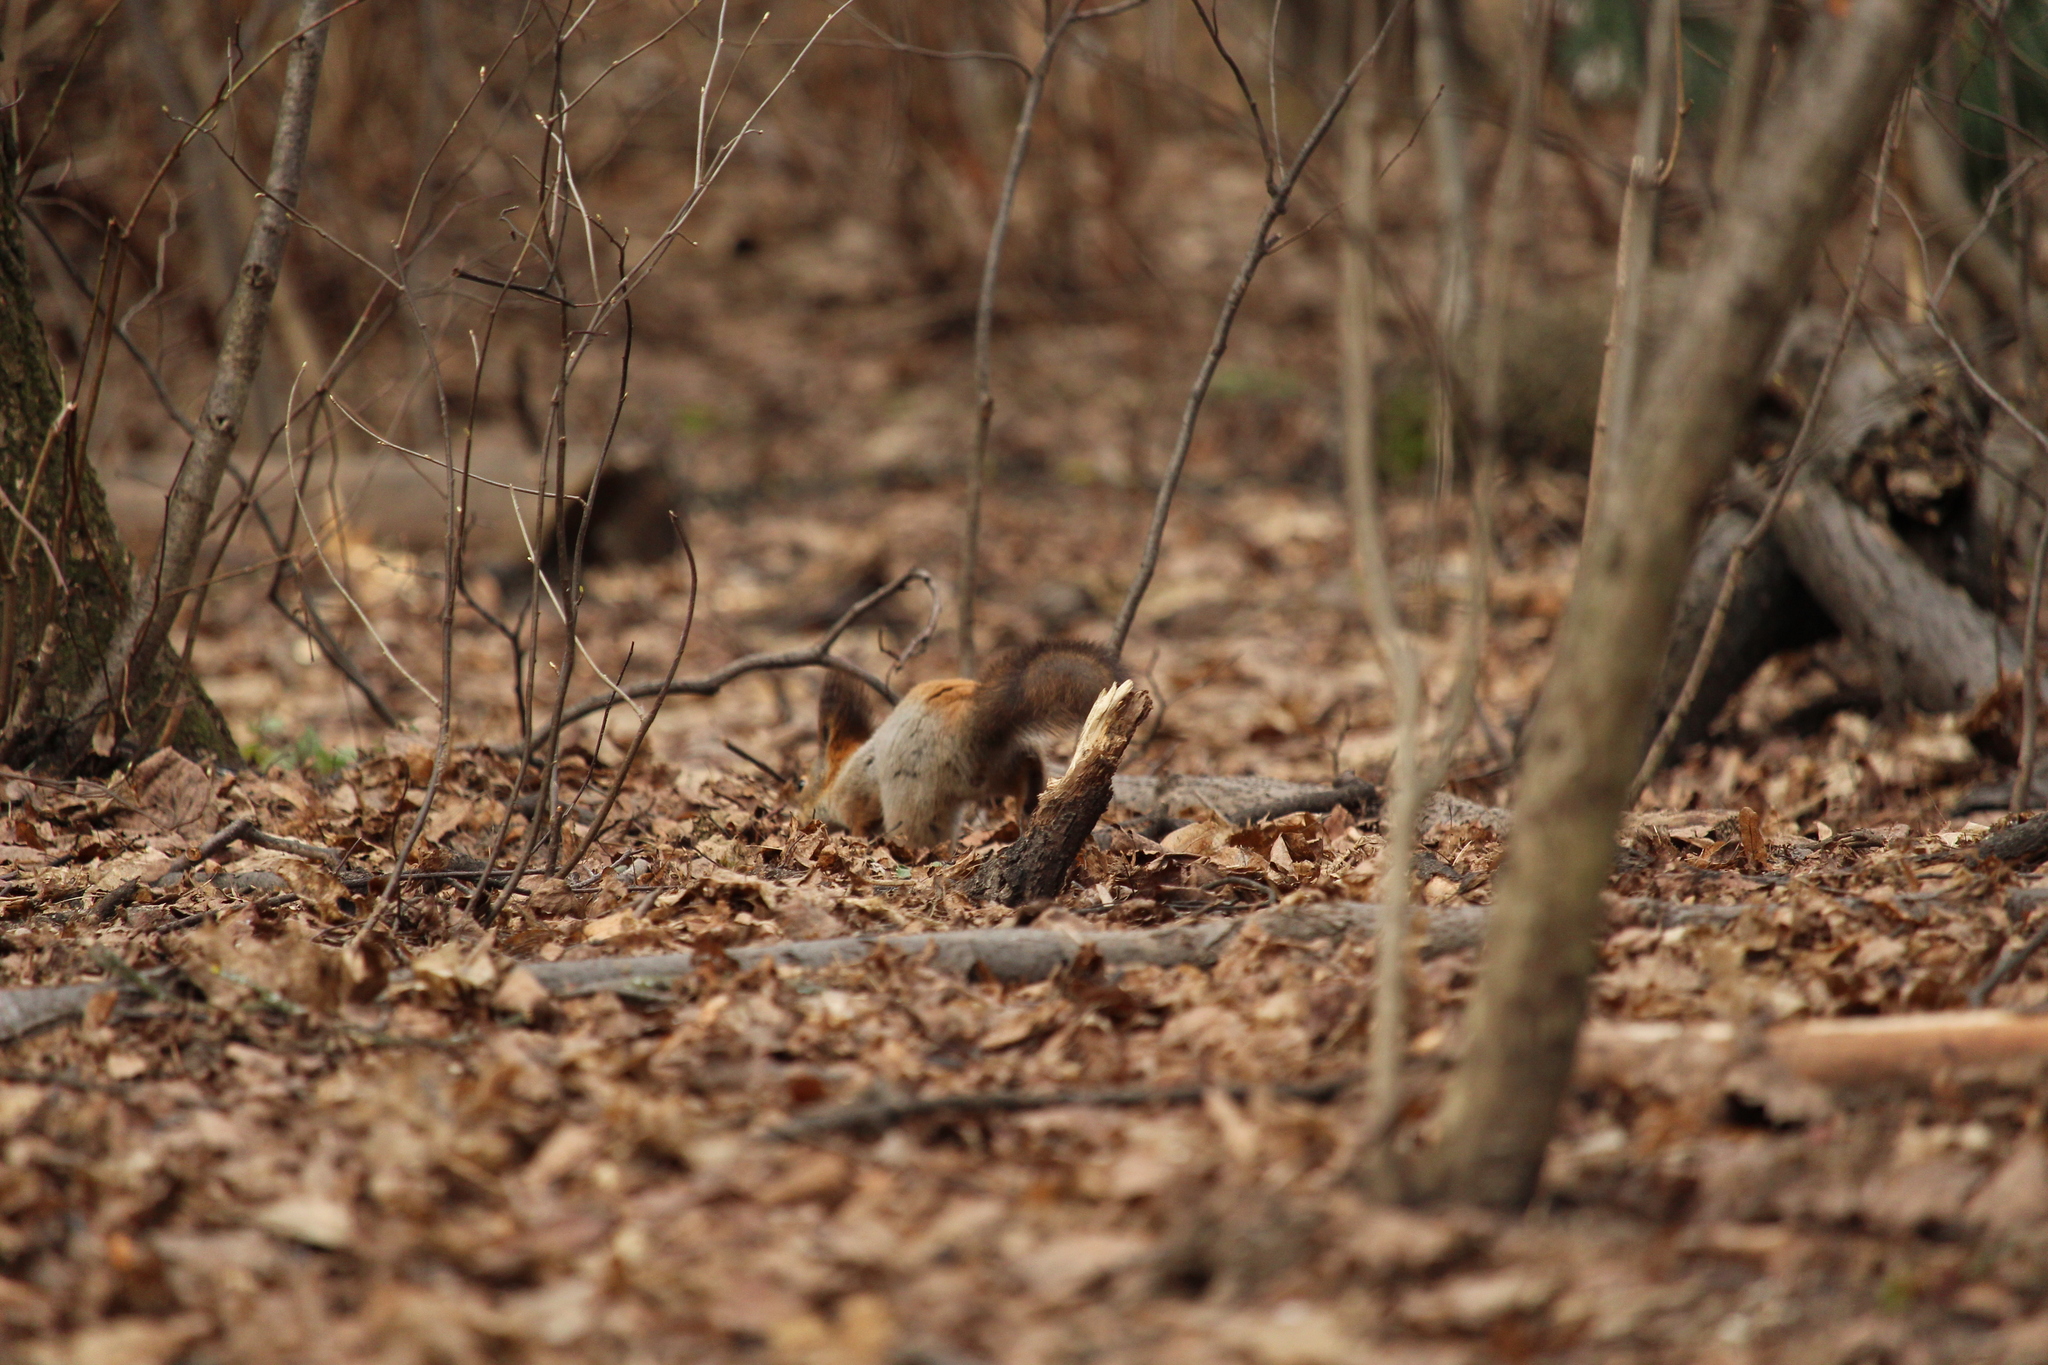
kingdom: Animalia
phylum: Chordata
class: Mammalia
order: Rodentia
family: Sciuridae
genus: Sciurus
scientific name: Sciurus vulgaris
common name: Eurasian red squirrel
